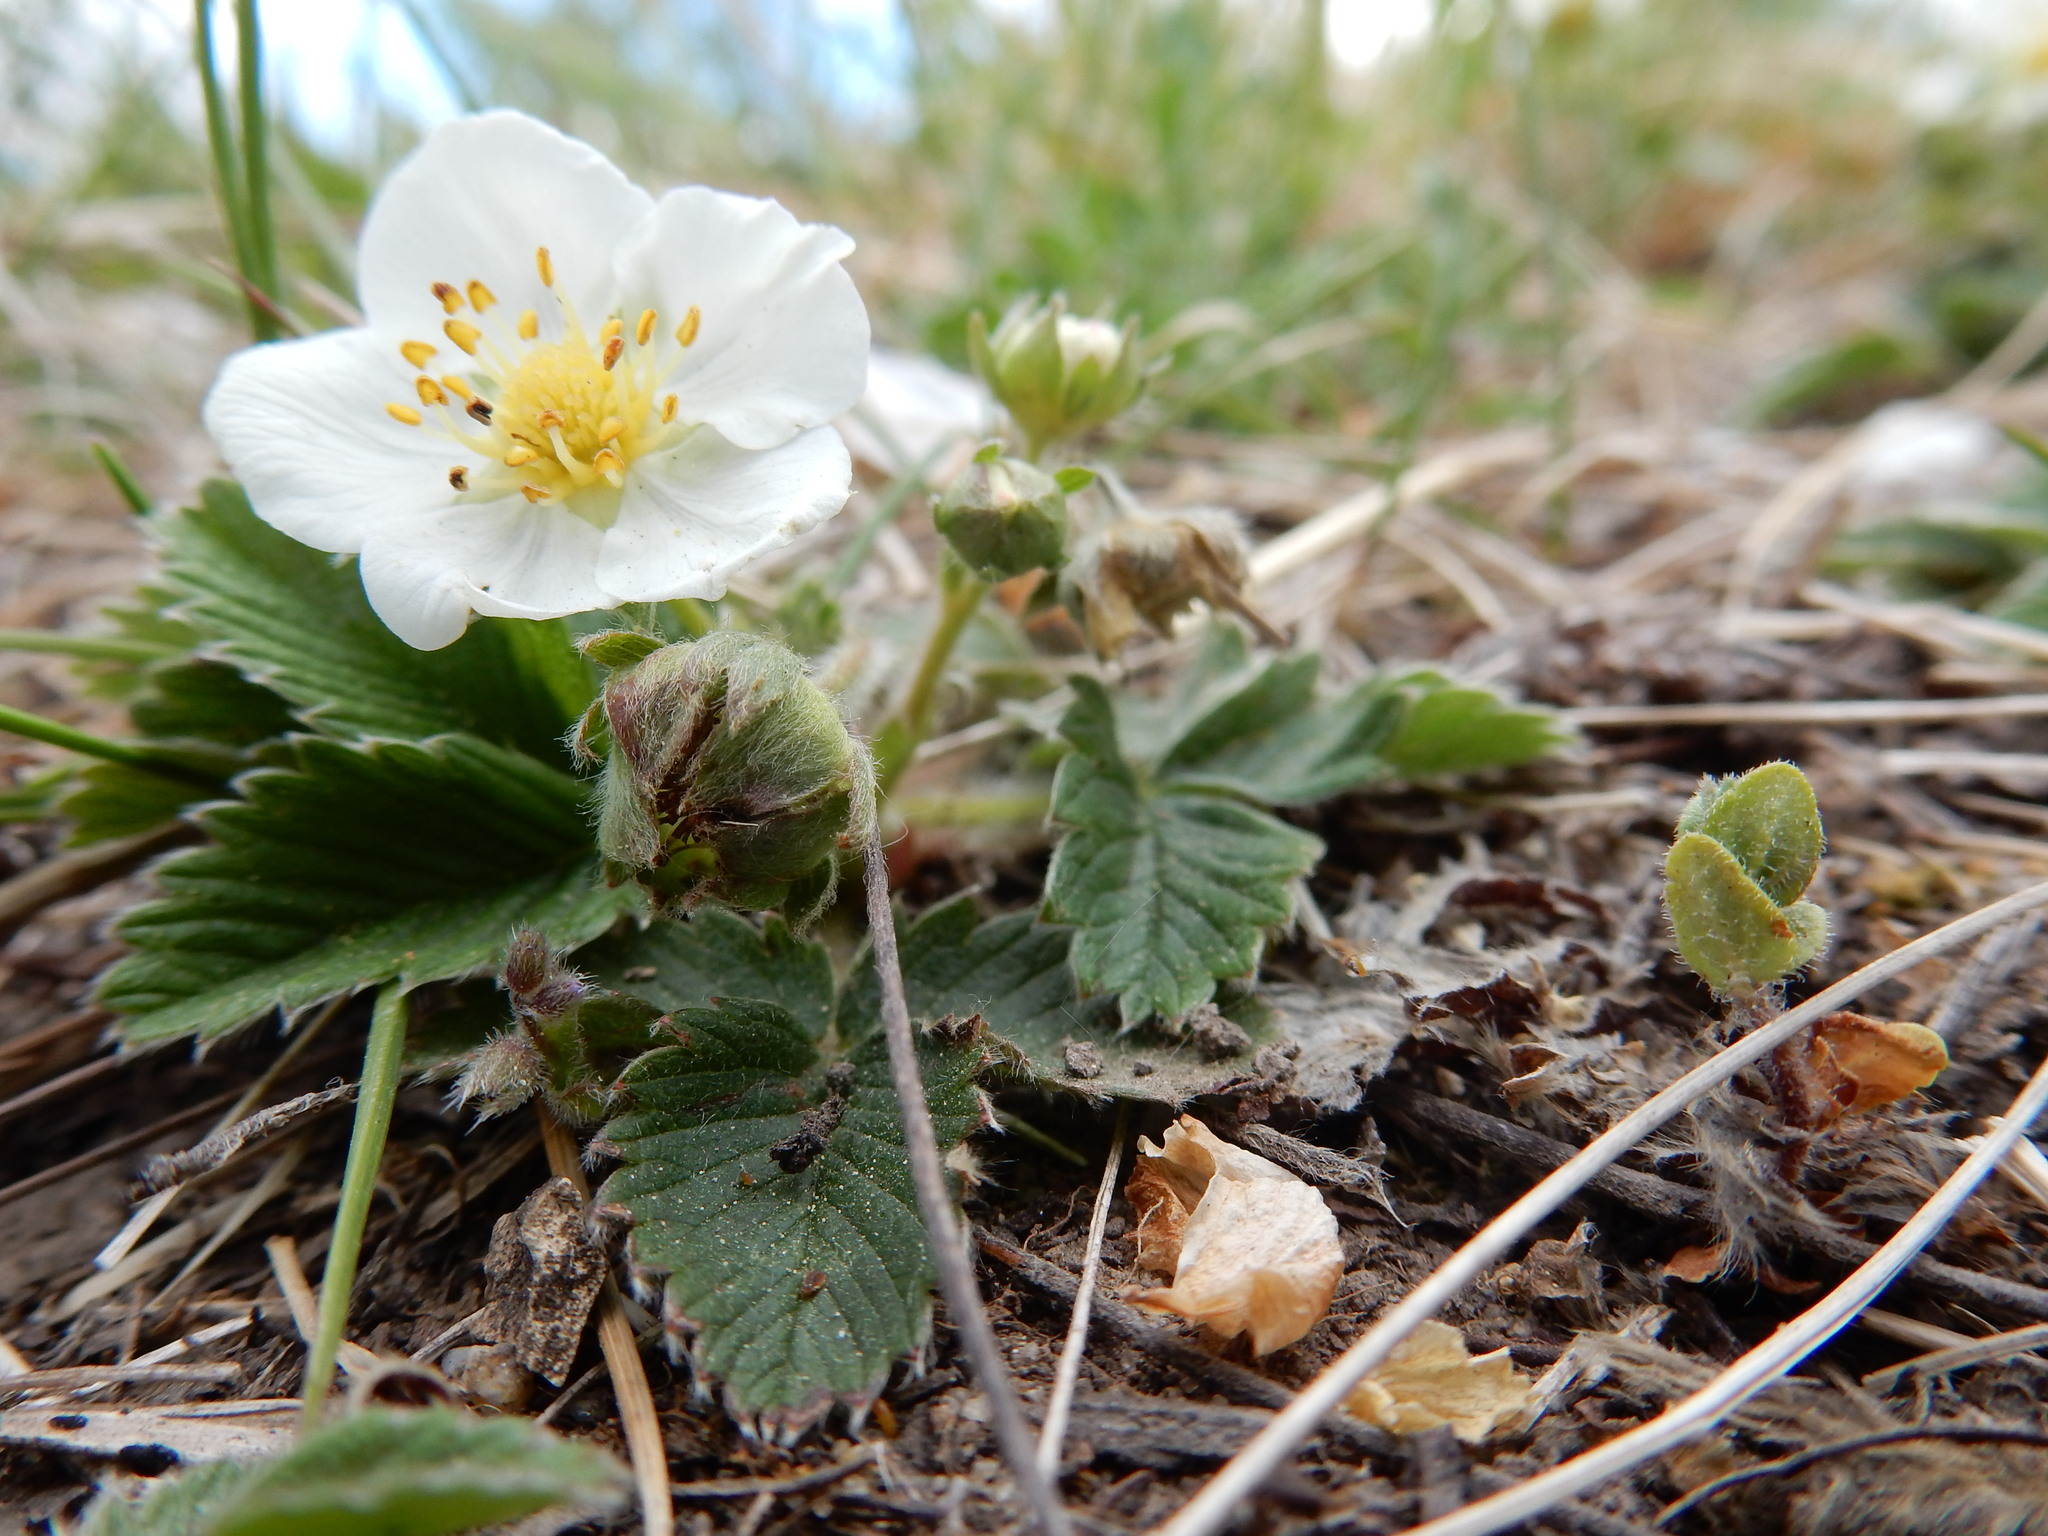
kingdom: Plantae
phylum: Tracheophyta
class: Magnoliopsida
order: Rosales
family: Rosaceae
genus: Fragaria
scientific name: Fragaria viridis
